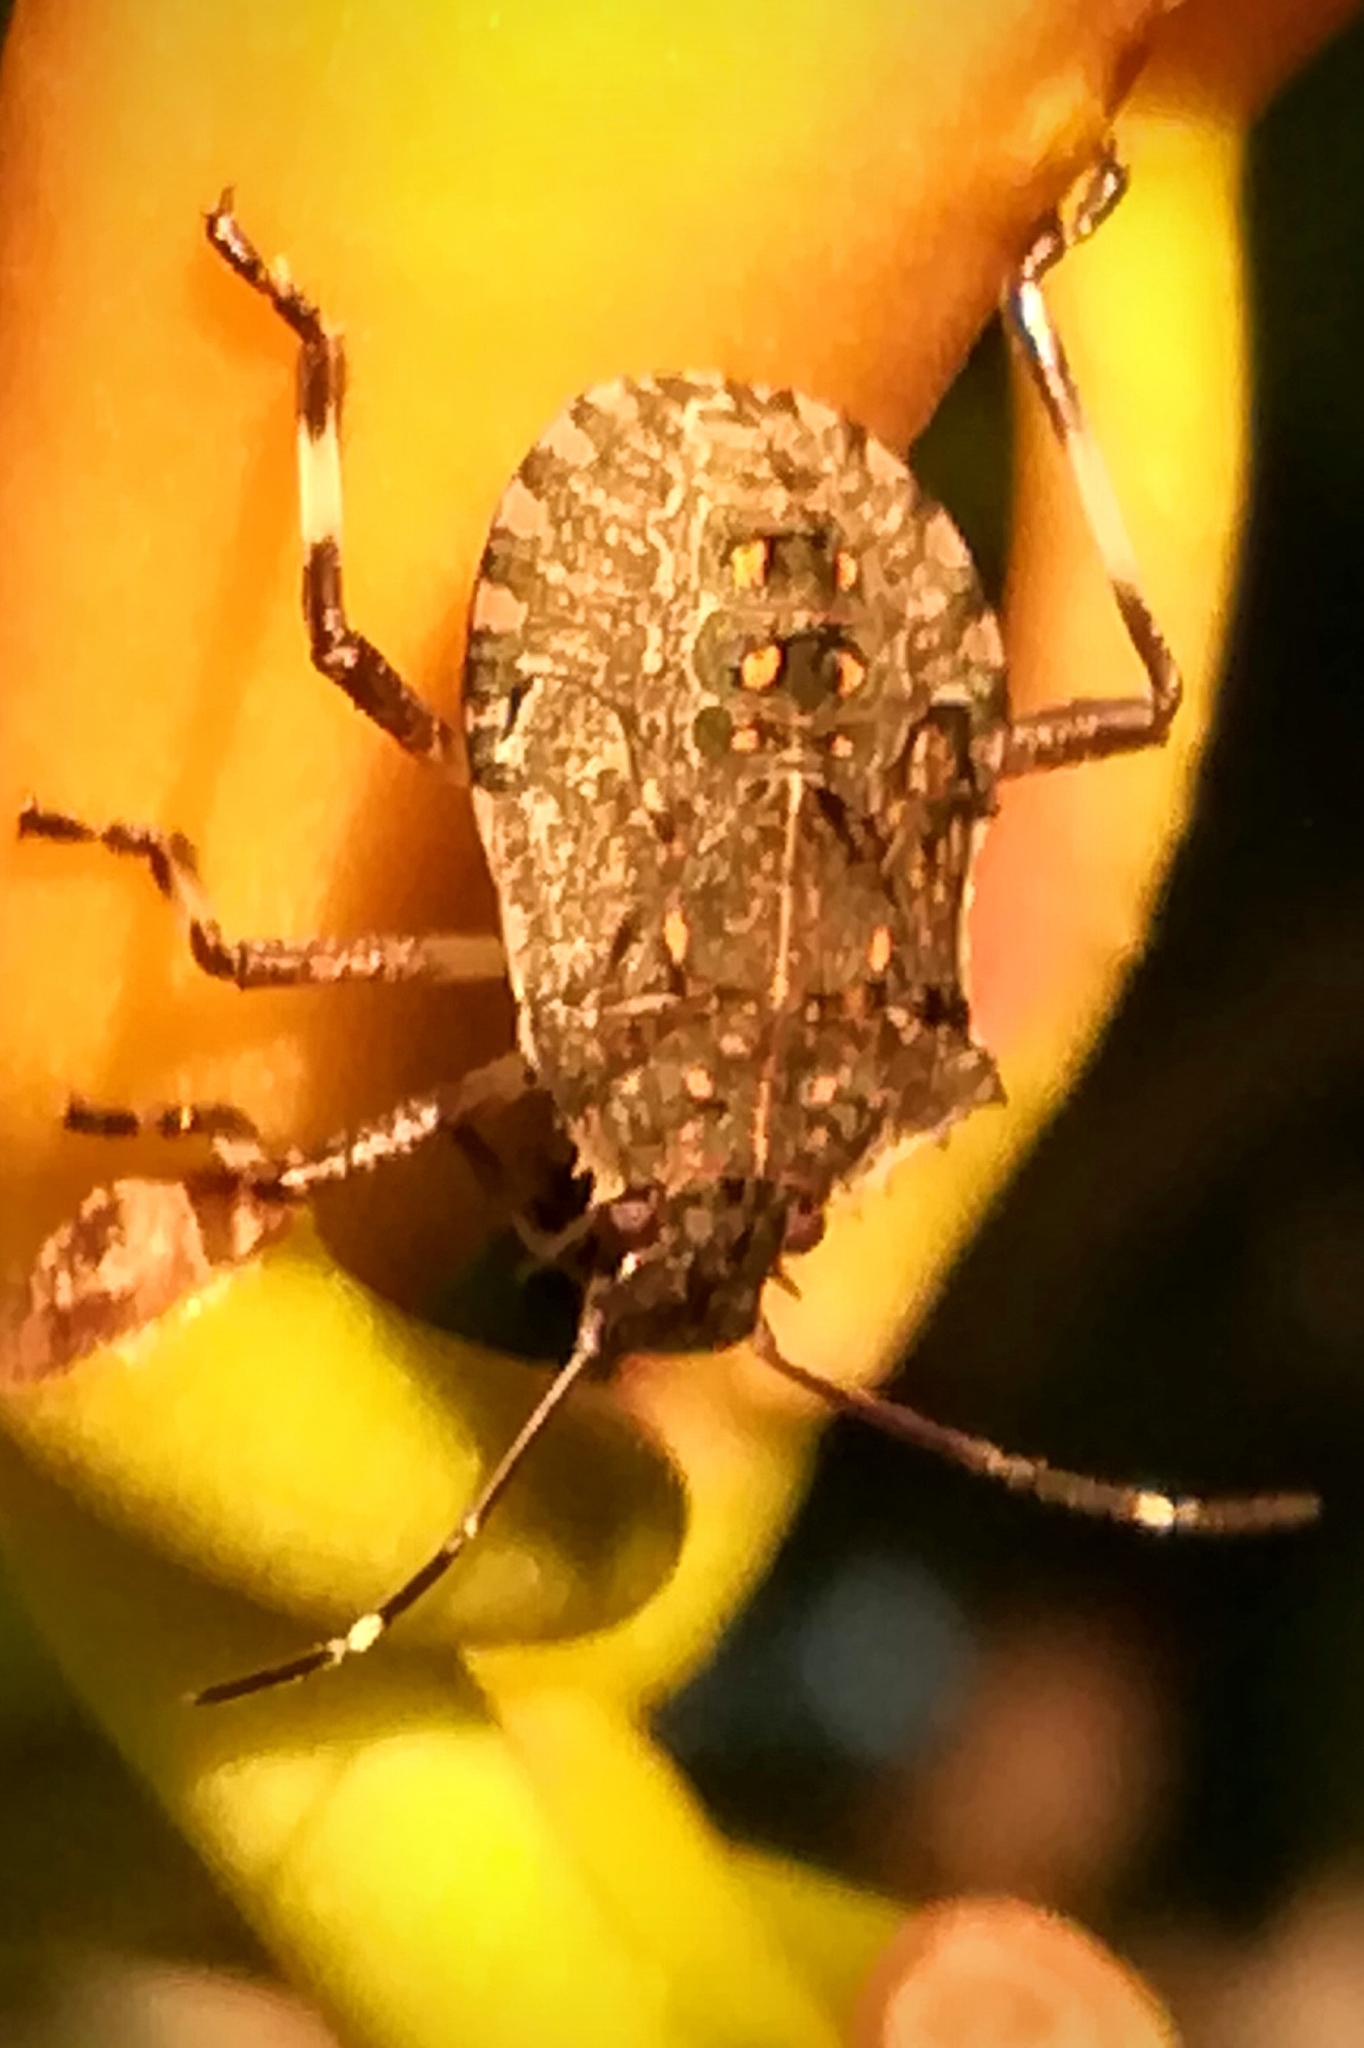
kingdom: Animalia
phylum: Arthropoda
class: Insecta
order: Hemiptera
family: Pentatomidae
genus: Halyomorpha
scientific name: Halyomorpha halys
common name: Brown marmorated stink bug
